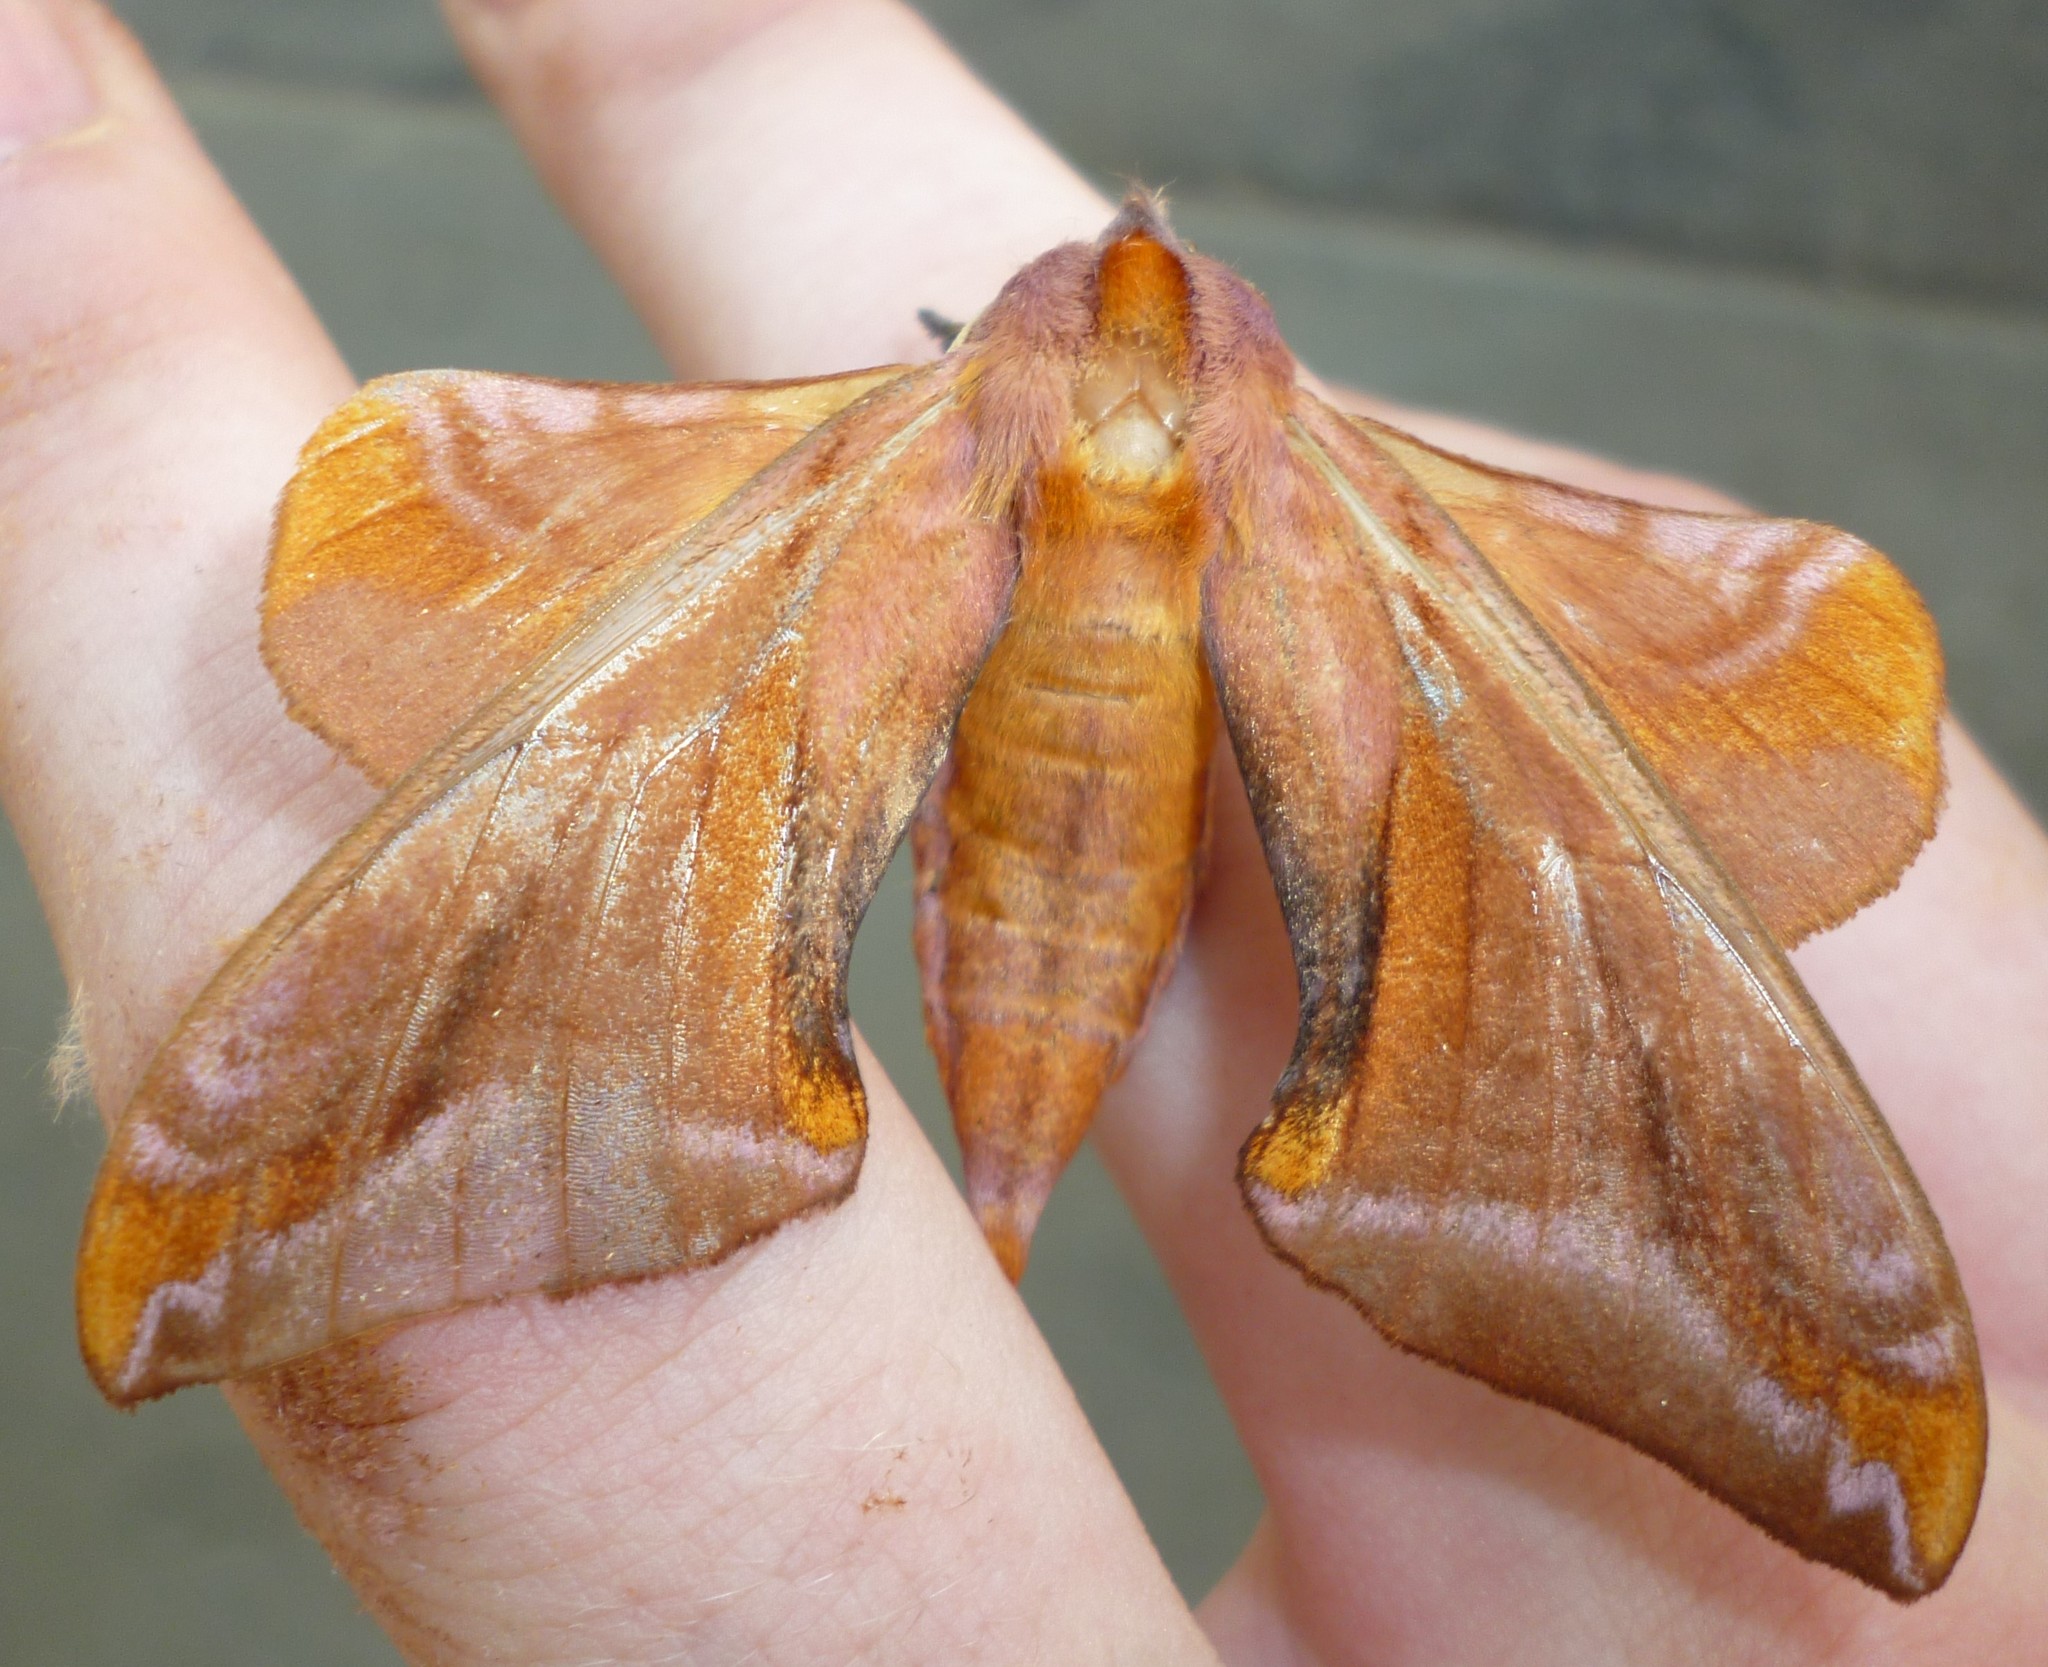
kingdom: Animalia
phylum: Arthropoda
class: Insecta
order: Lepidoptera
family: Sphingidae
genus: Paonias
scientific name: Paonias astylus
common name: Huckleberry sphinx
